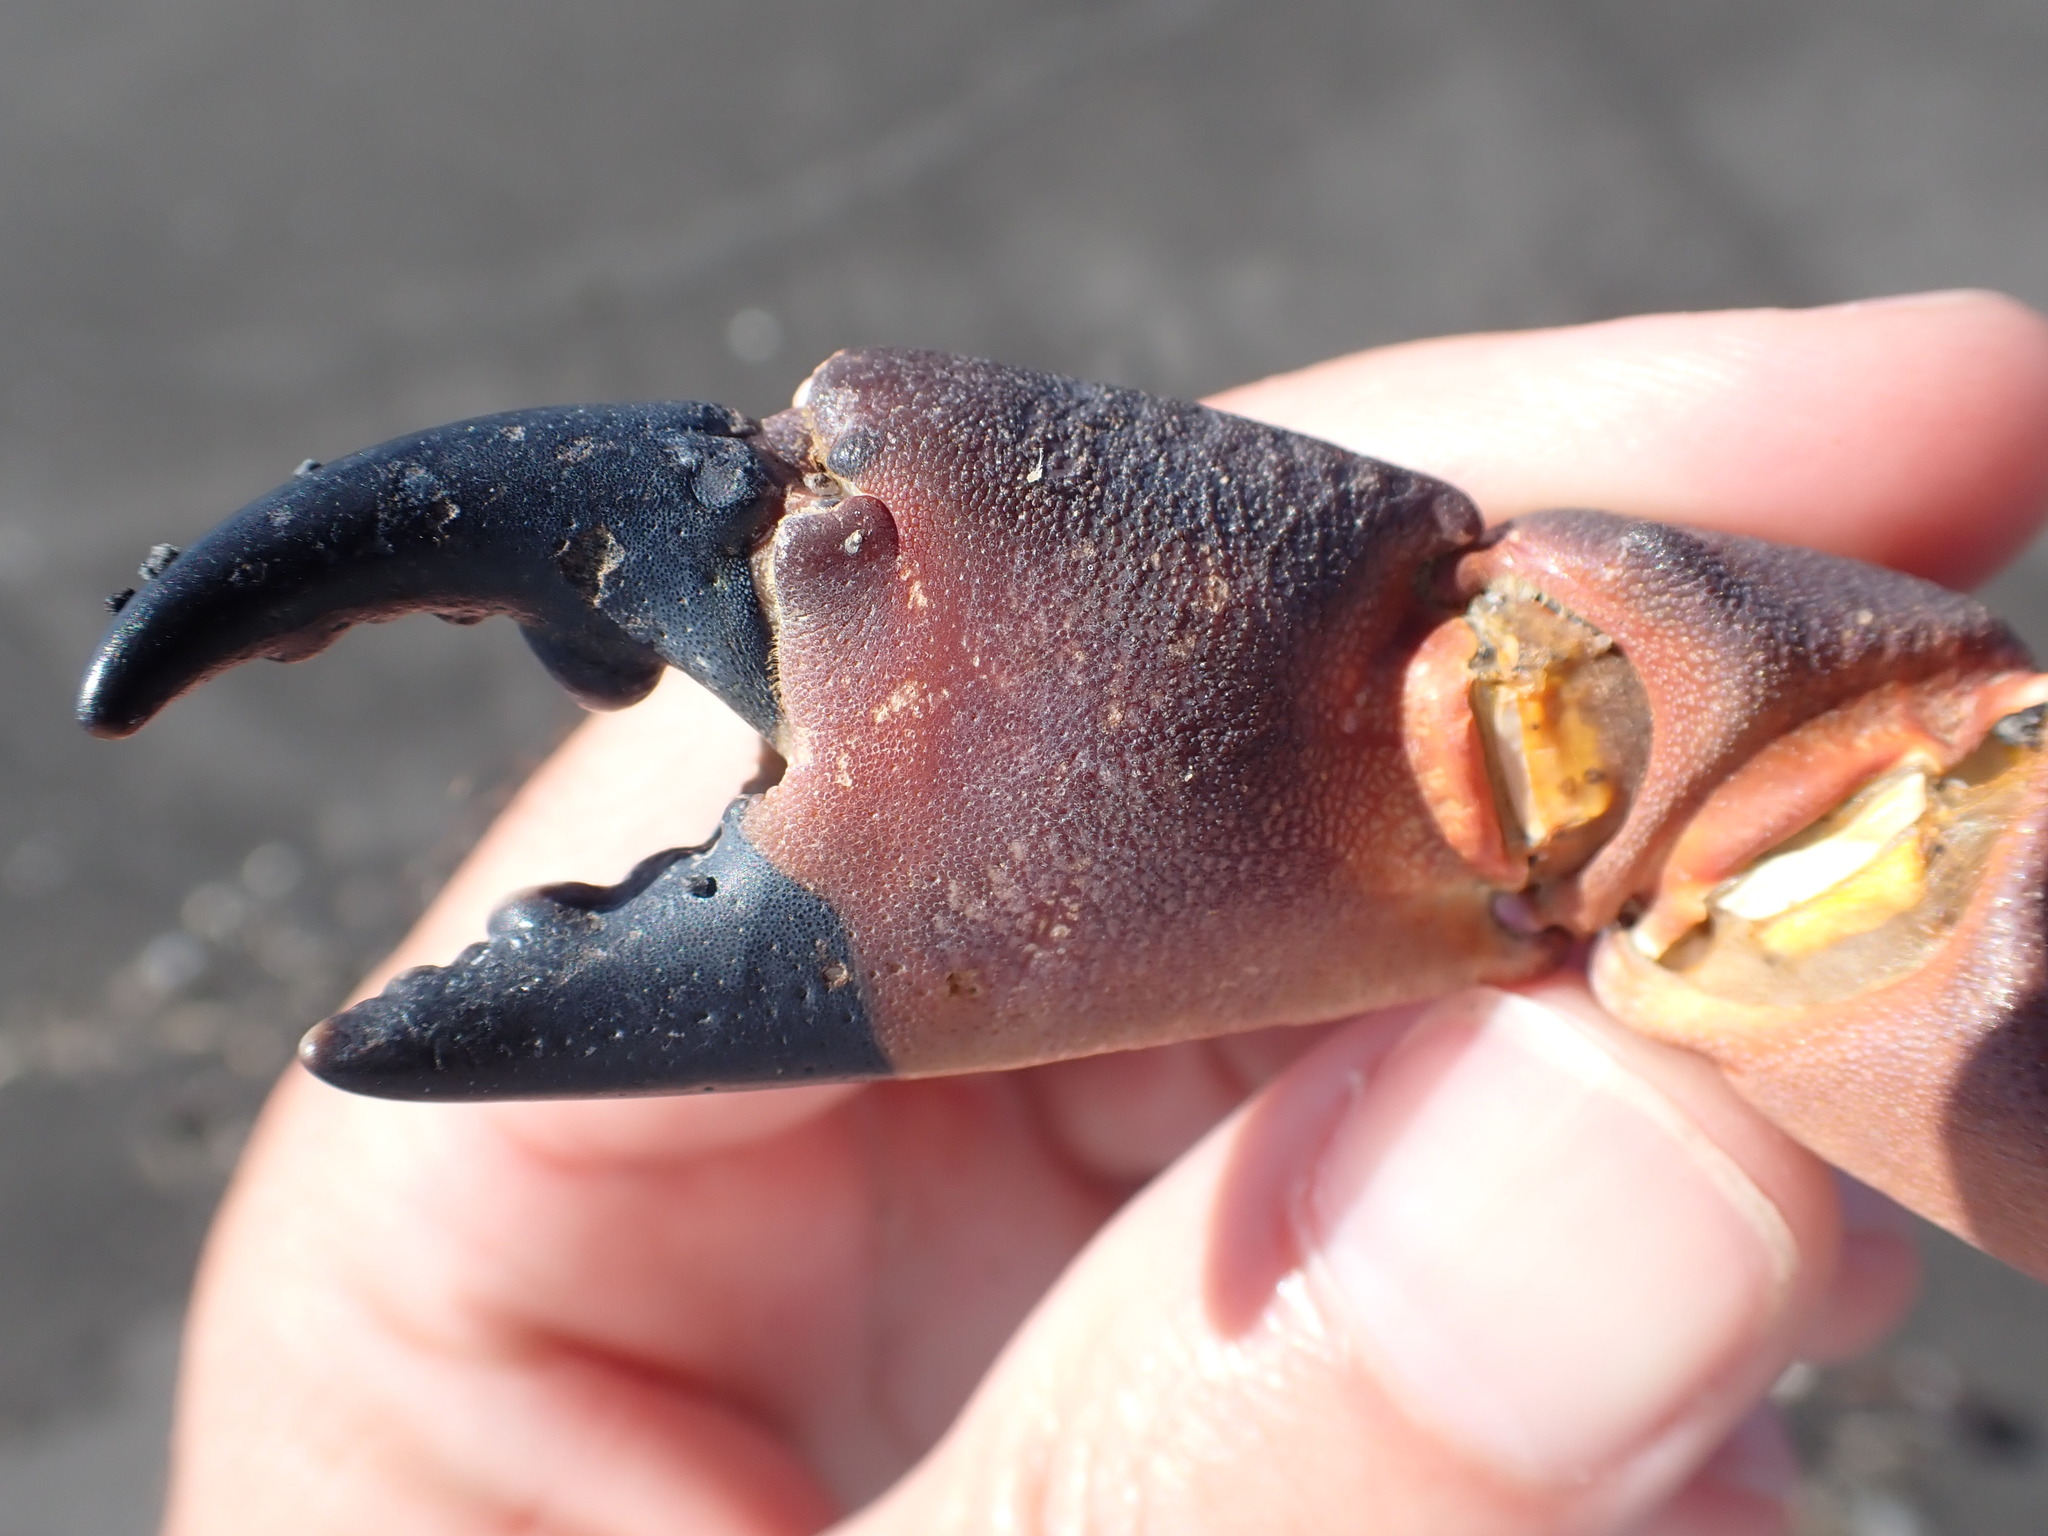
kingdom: Animalia
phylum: Arthropoda
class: Malacostraca
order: Decapoda
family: Oziidae
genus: Ozius
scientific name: Ozius deplanatus
